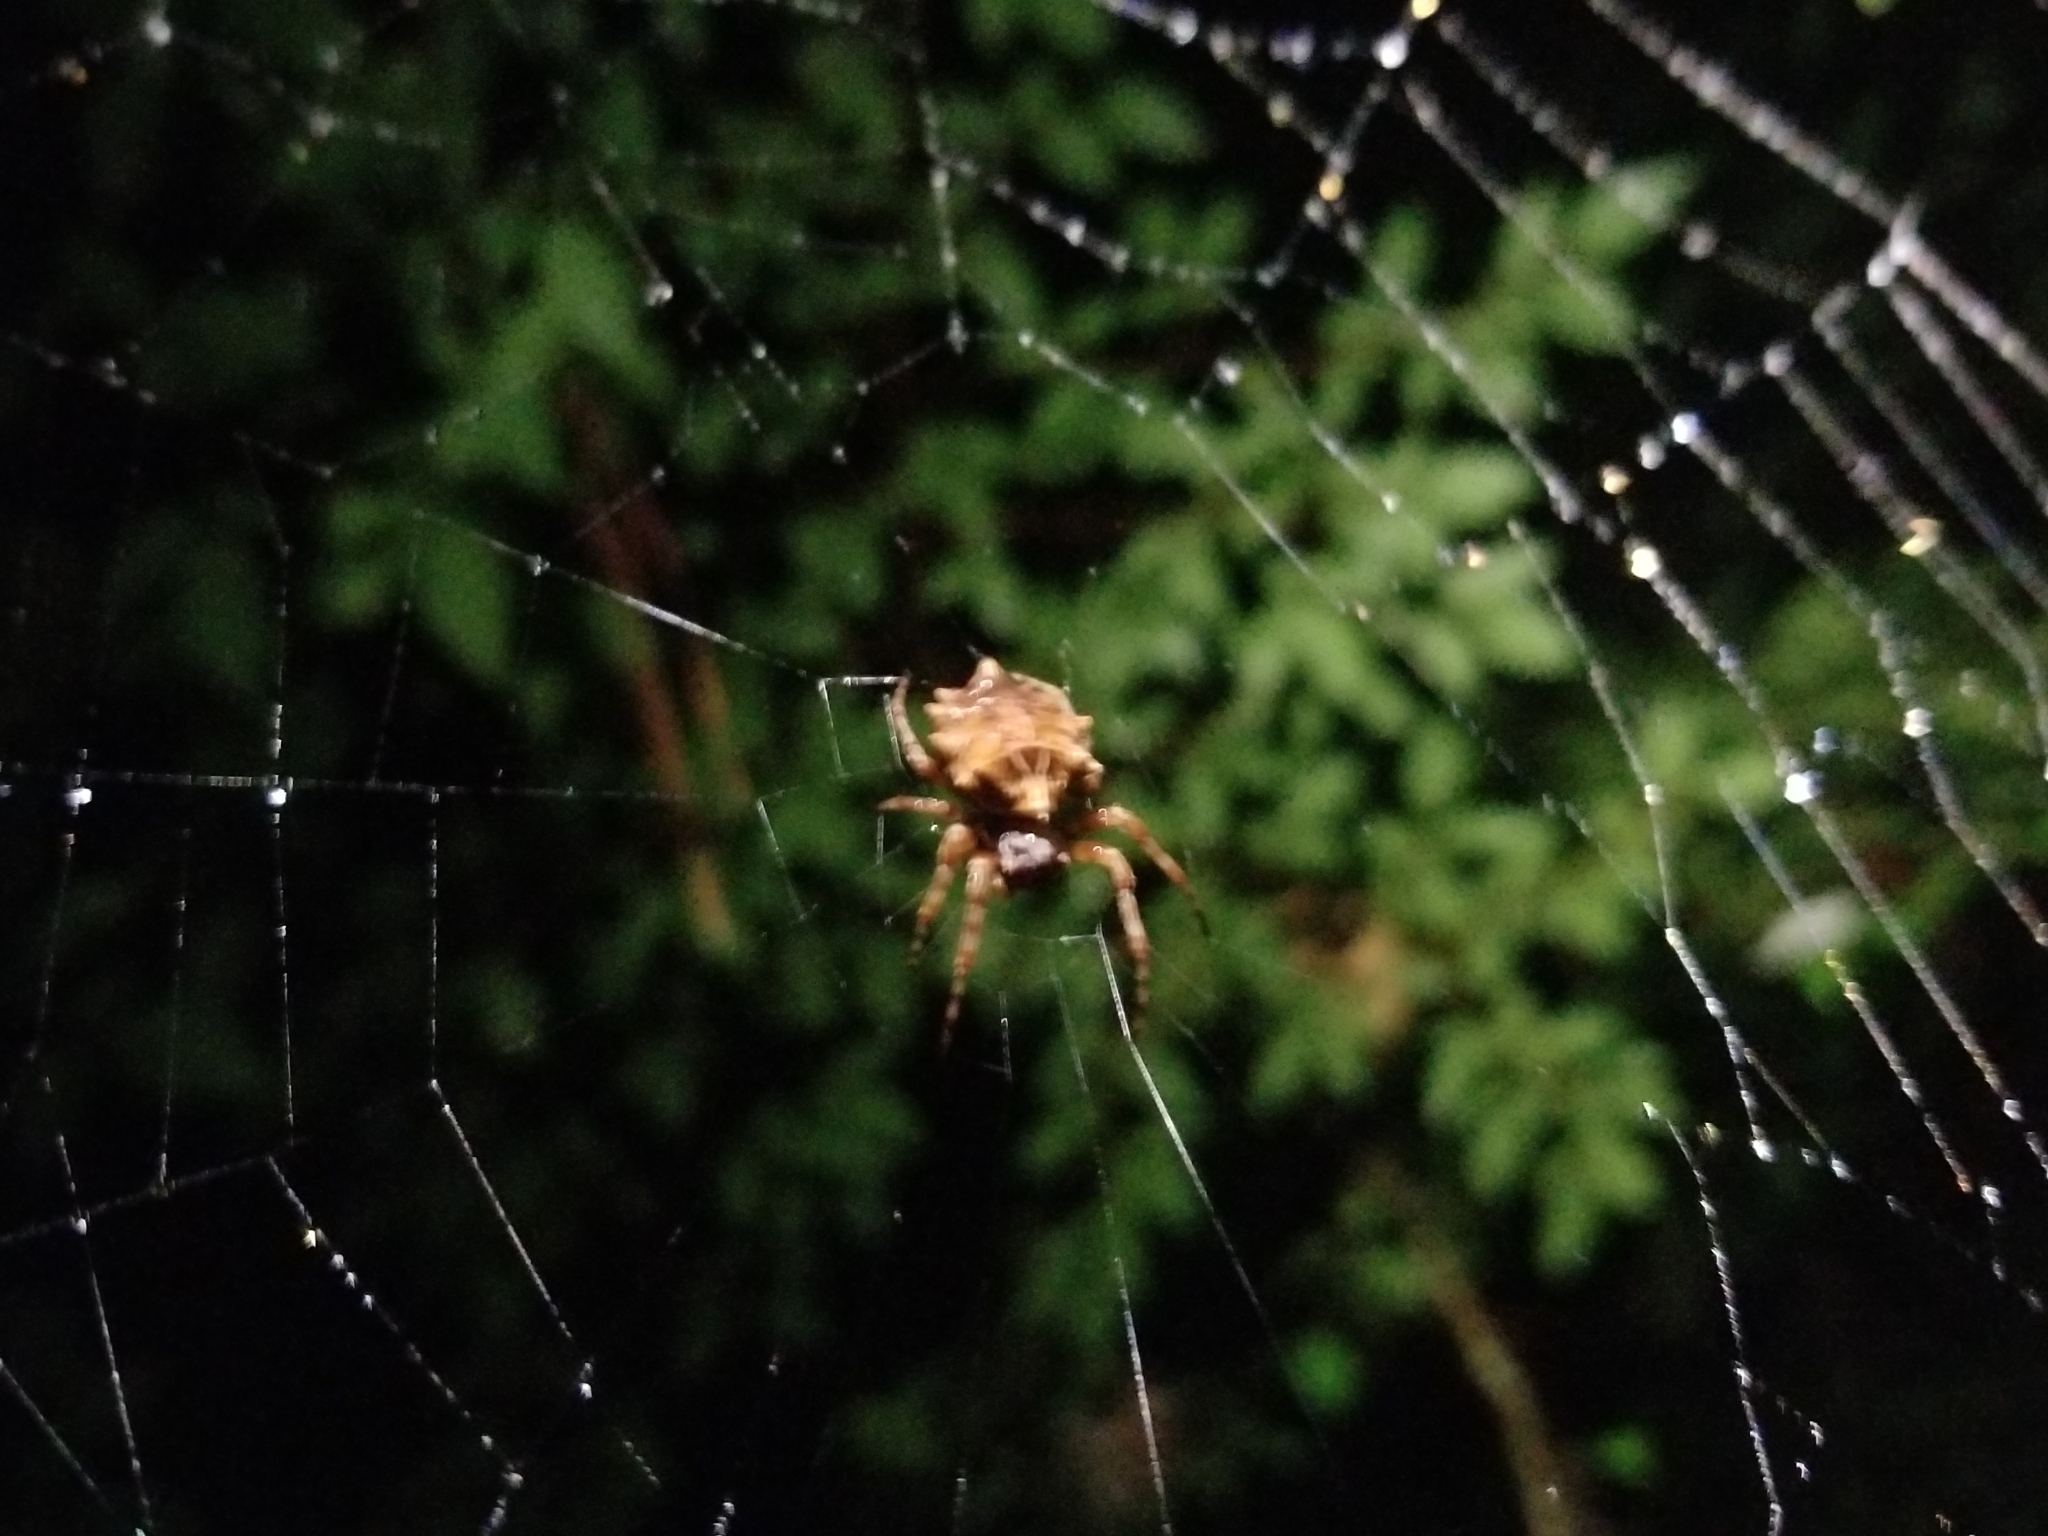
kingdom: Animalia
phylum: Arthropoda
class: Arachnida
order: Araneae
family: Araneidae
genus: Acanthepeira
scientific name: Acanthepeira stellata
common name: Starbellied orbweaver
